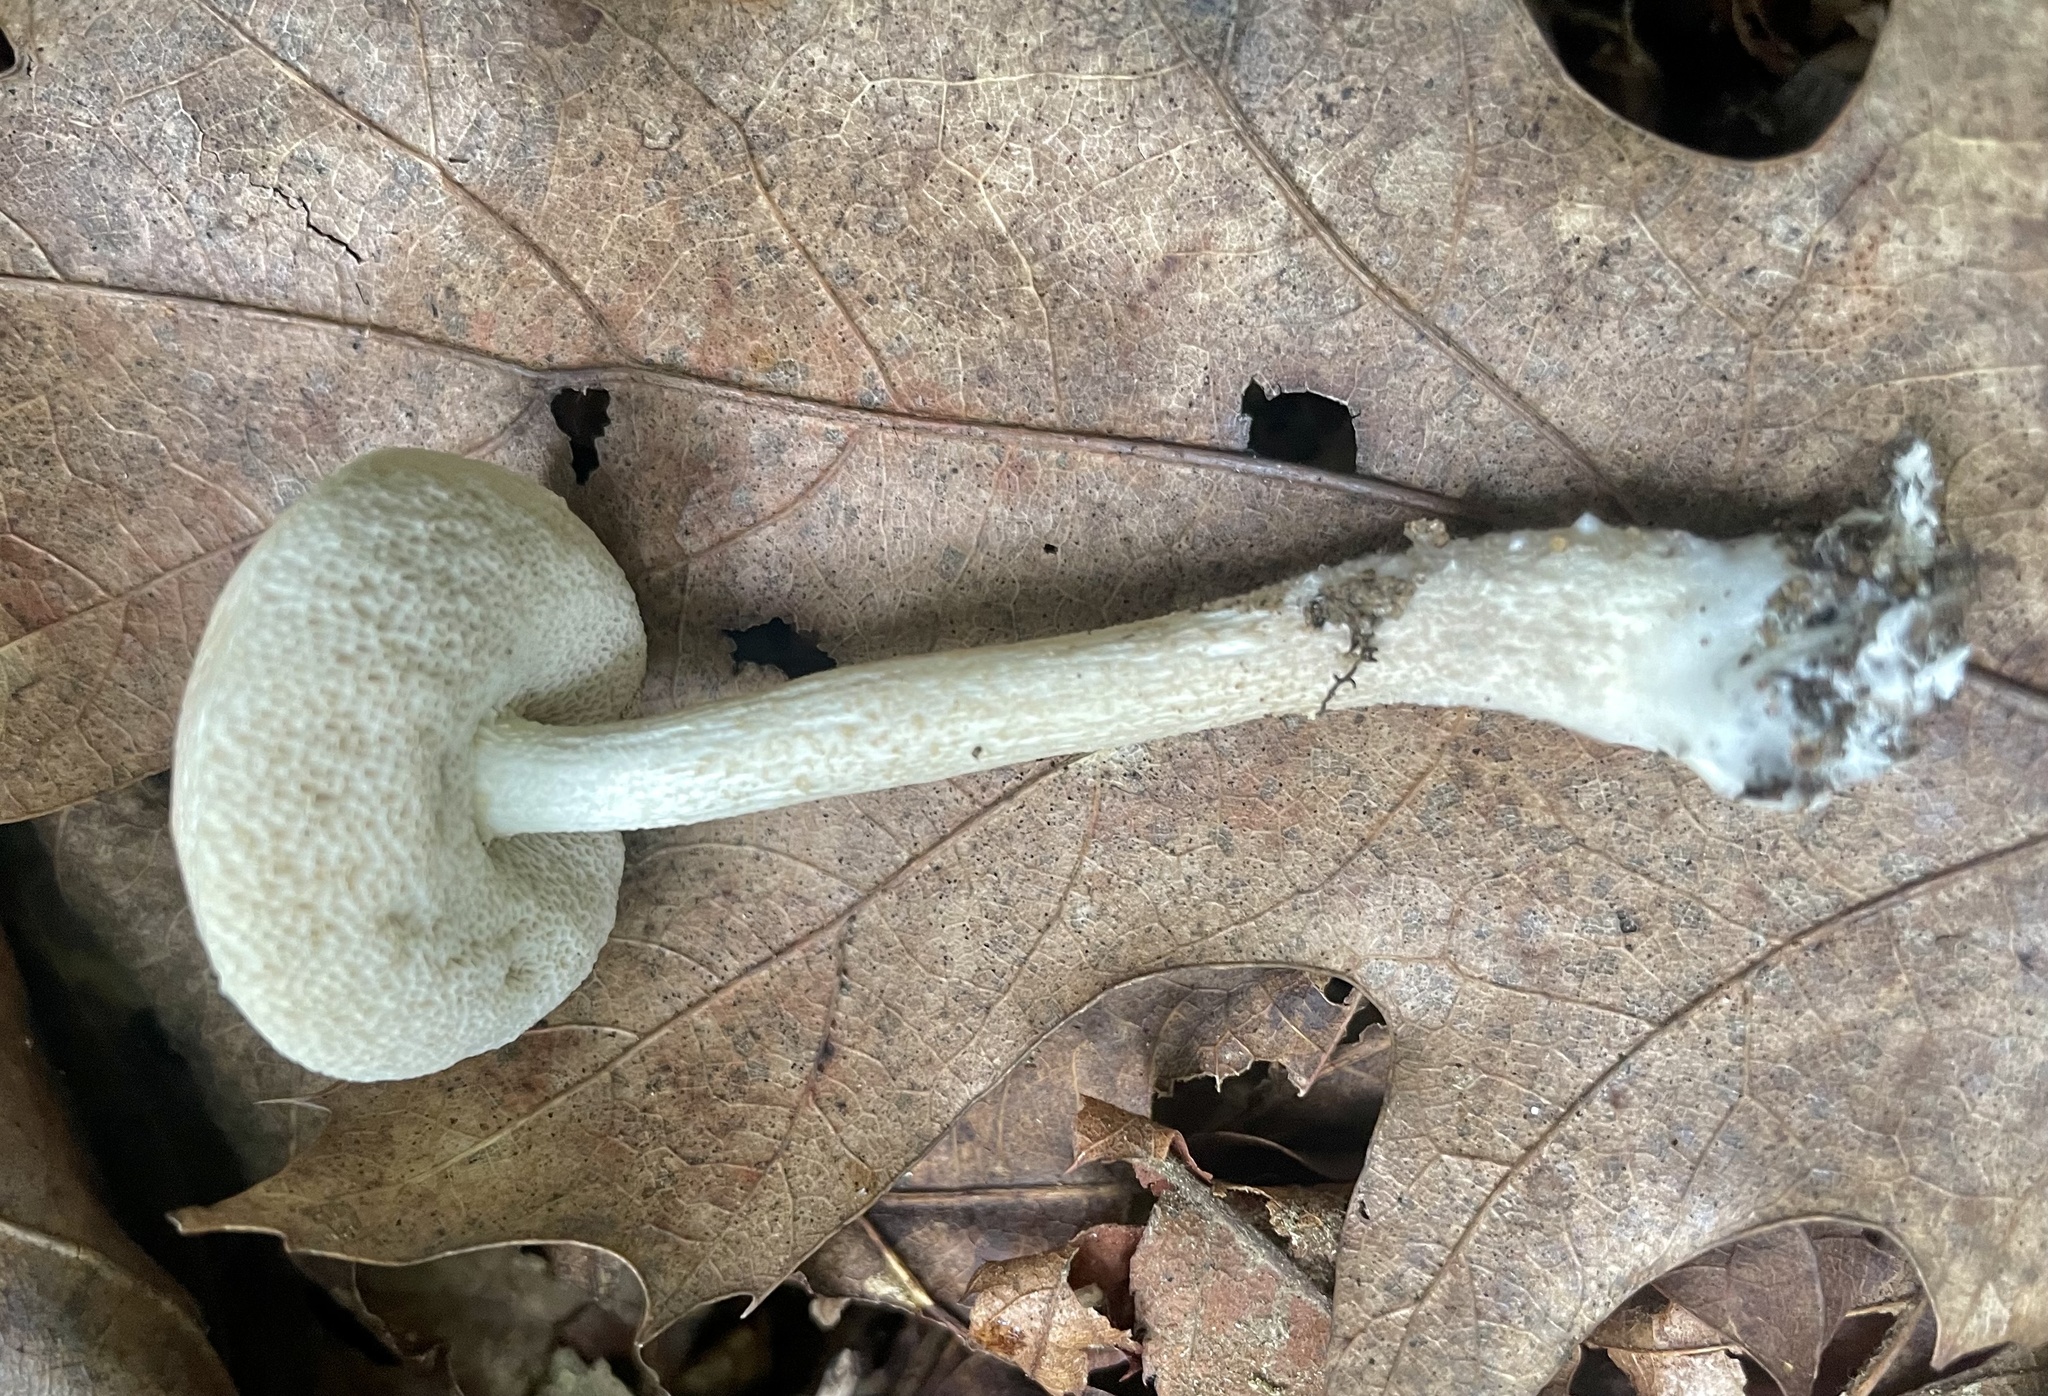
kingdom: Fungi
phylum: Basidiomycota
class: Agaricomycetes
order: Boletales
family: Boletaceae
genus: Leccinellum
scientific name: Leccinellum albellum
